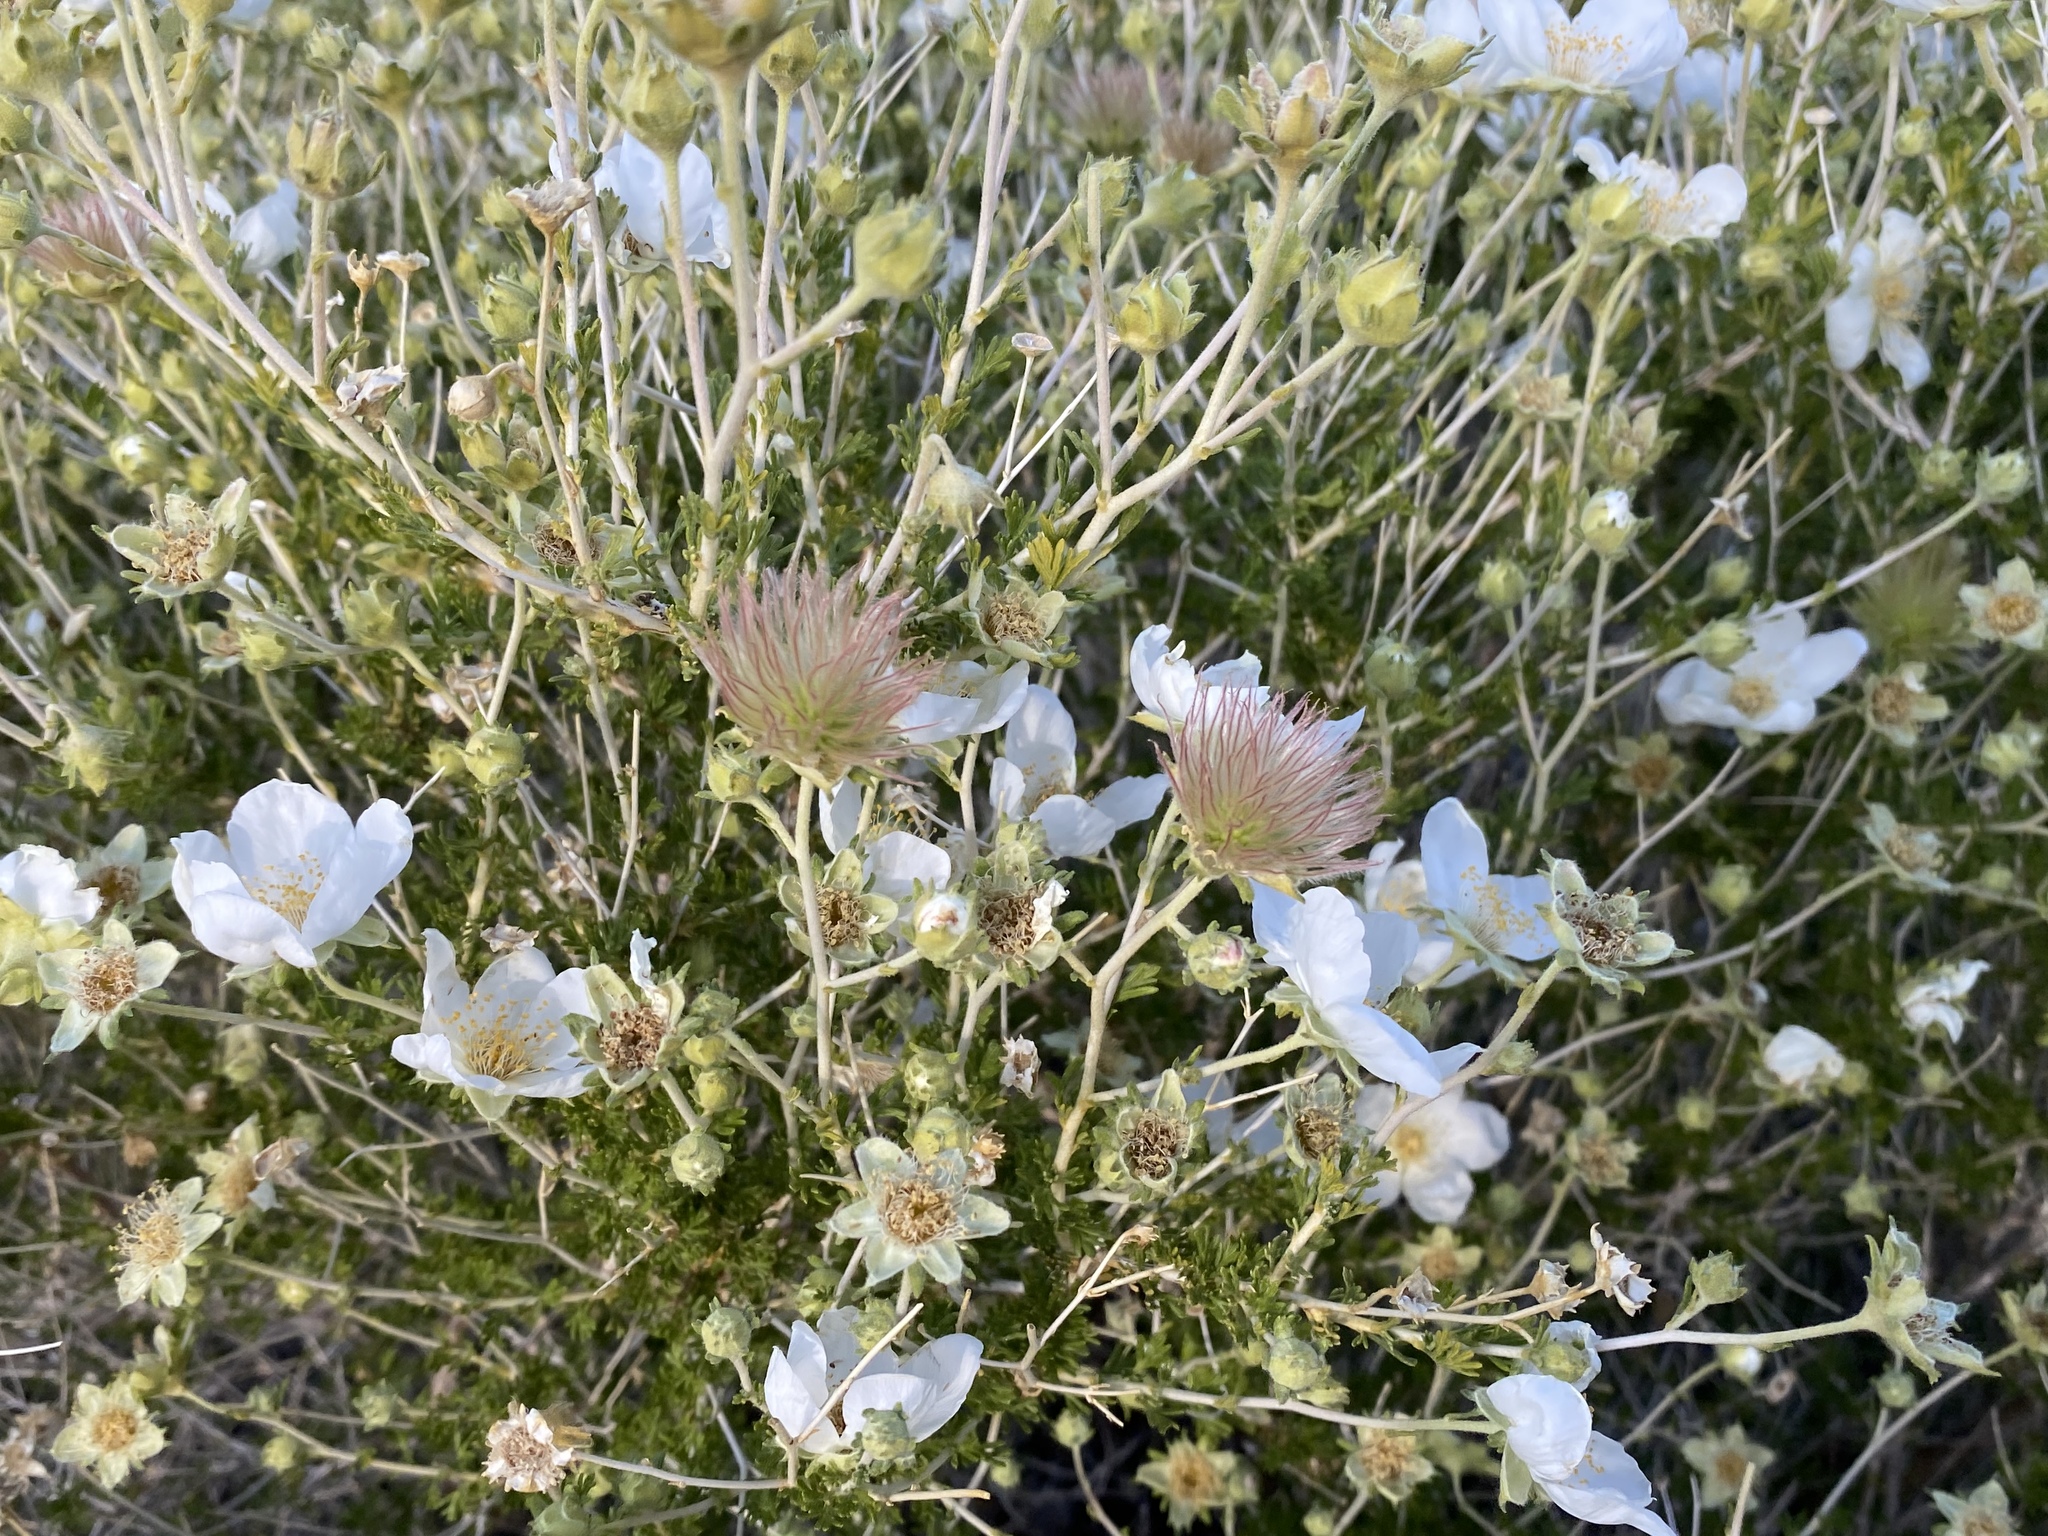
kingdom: Plantae
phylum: Tracheophyta
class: Magnoliopsida
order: Rosales
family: Rosaceae
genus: Fallugia
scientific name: Fallugia paradoxa
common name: Apache-plume
